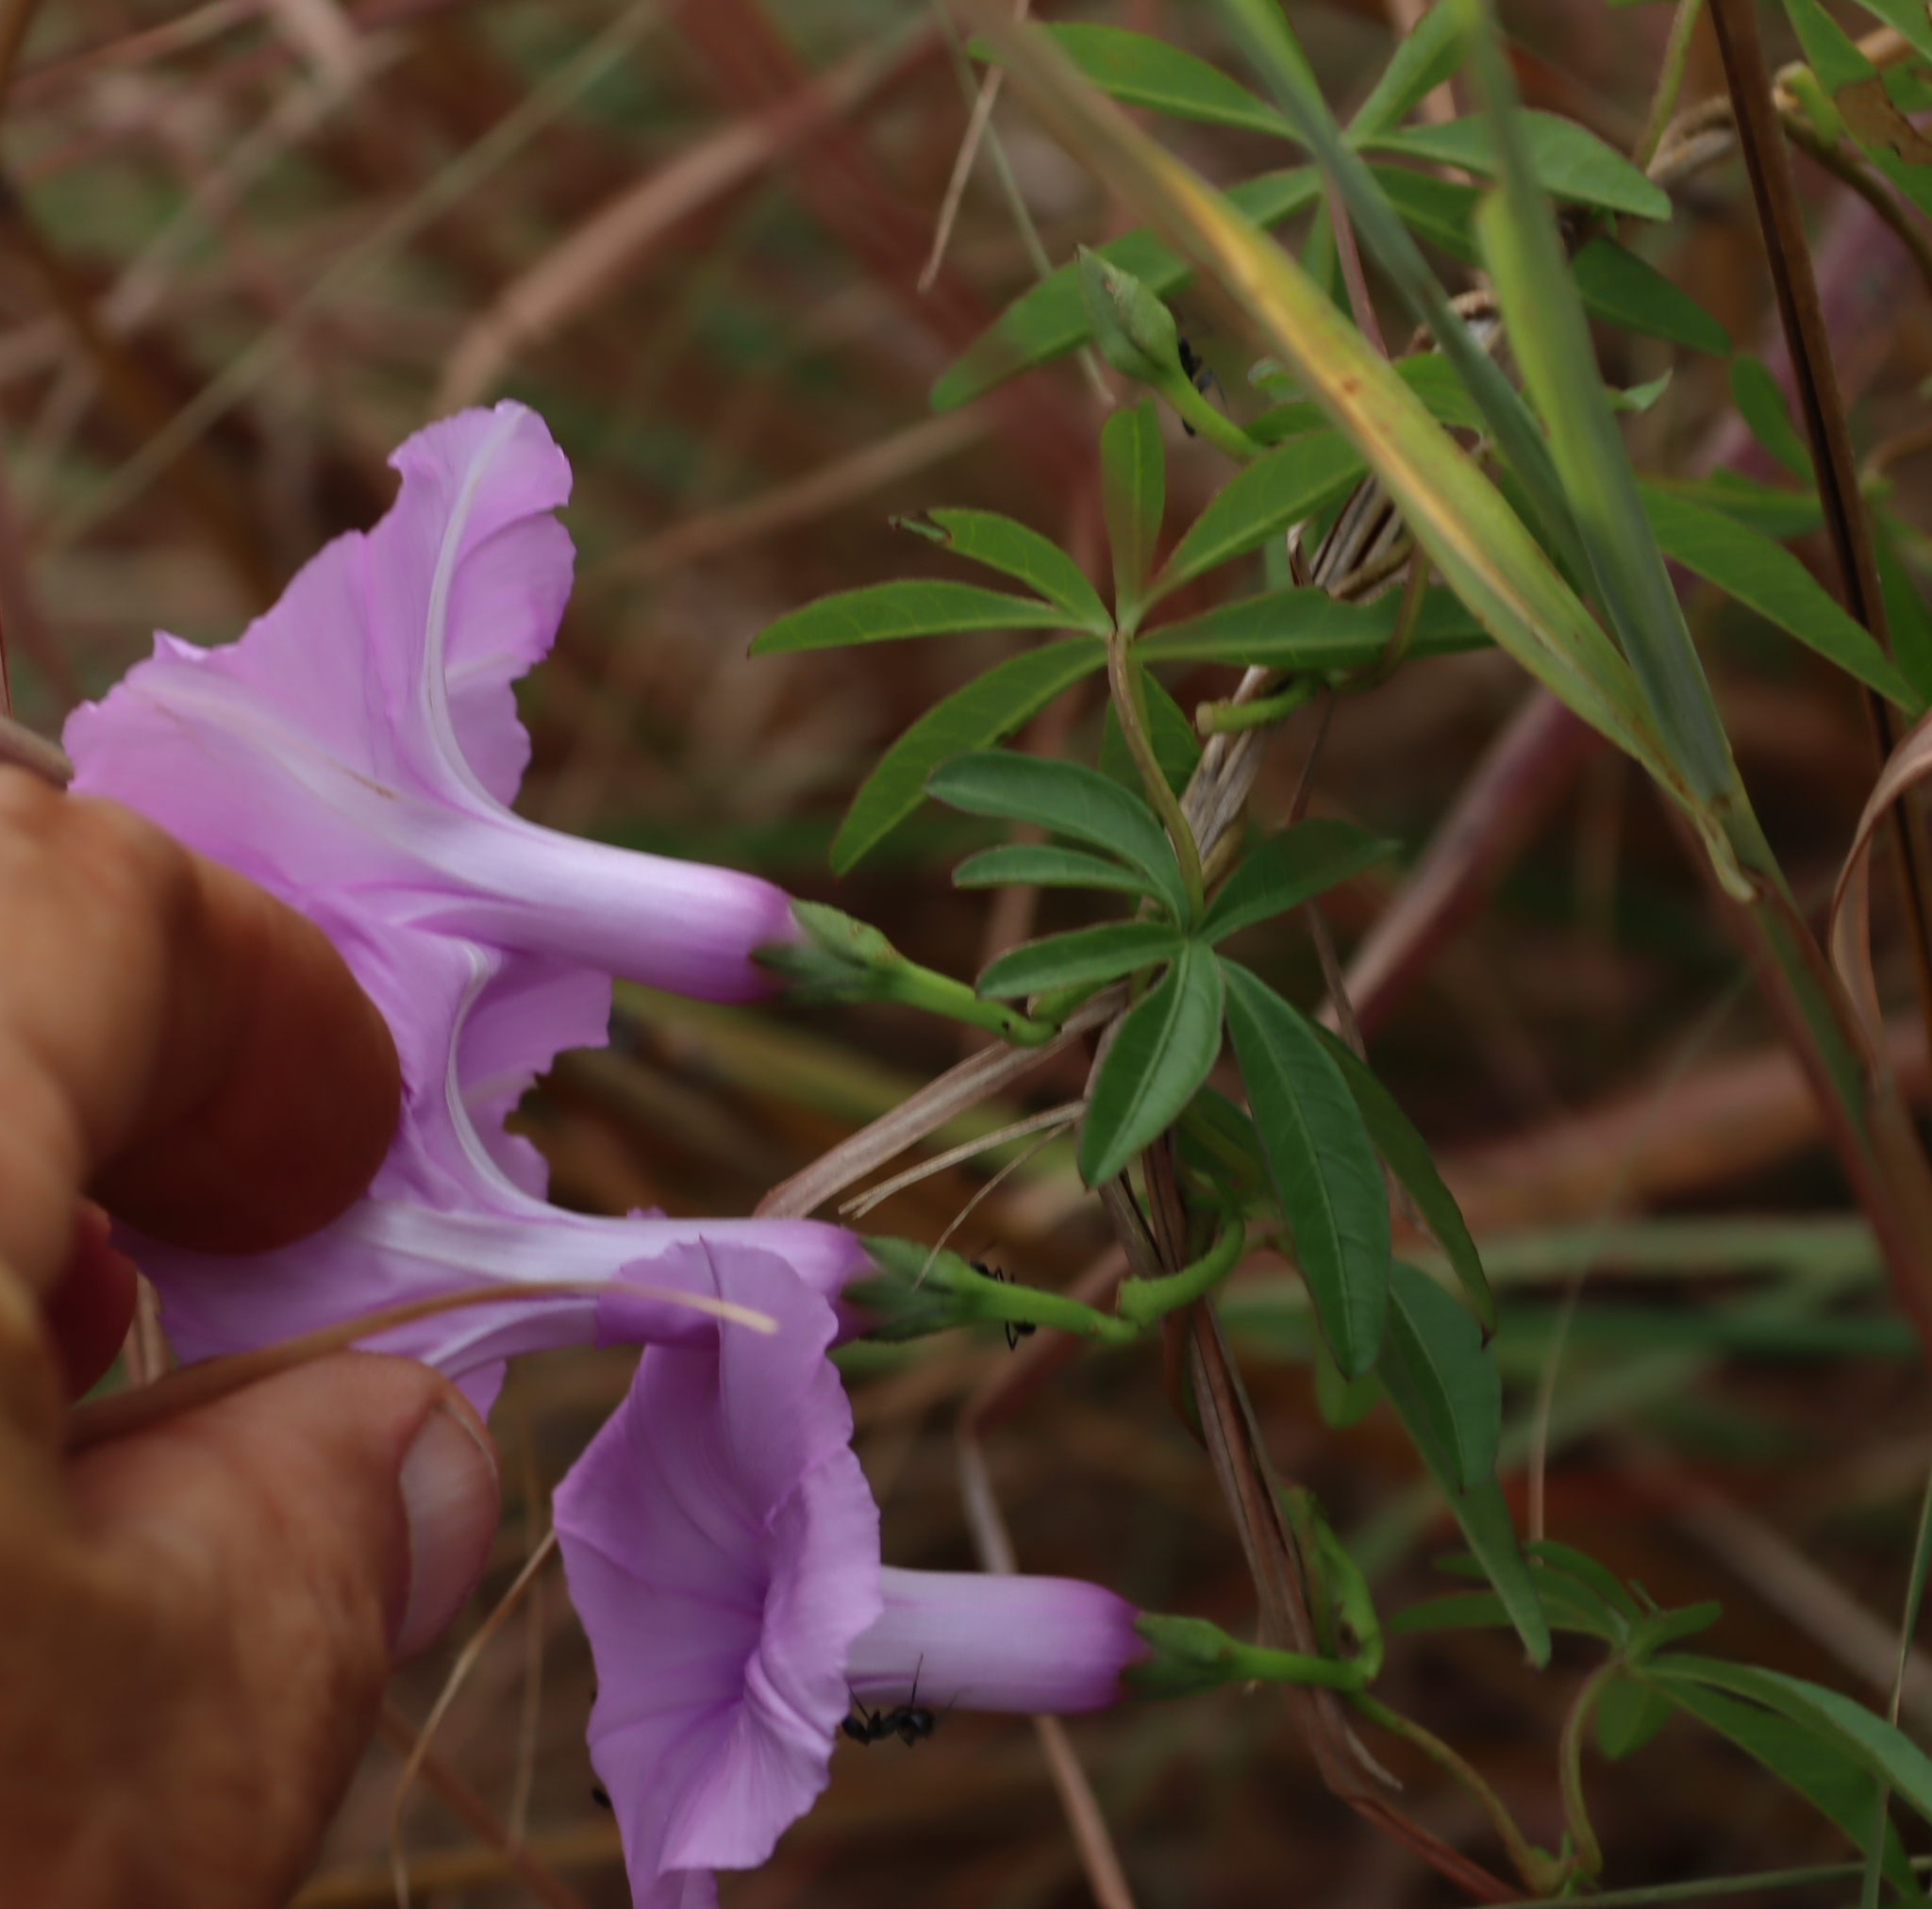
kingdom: Plantae
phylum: Tracheophyta
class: Magnoliopsida
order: Solanales
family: Convolvulaceae
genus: Ipomoea
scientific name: Ipomoea cairica
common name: Mile a minute vine
